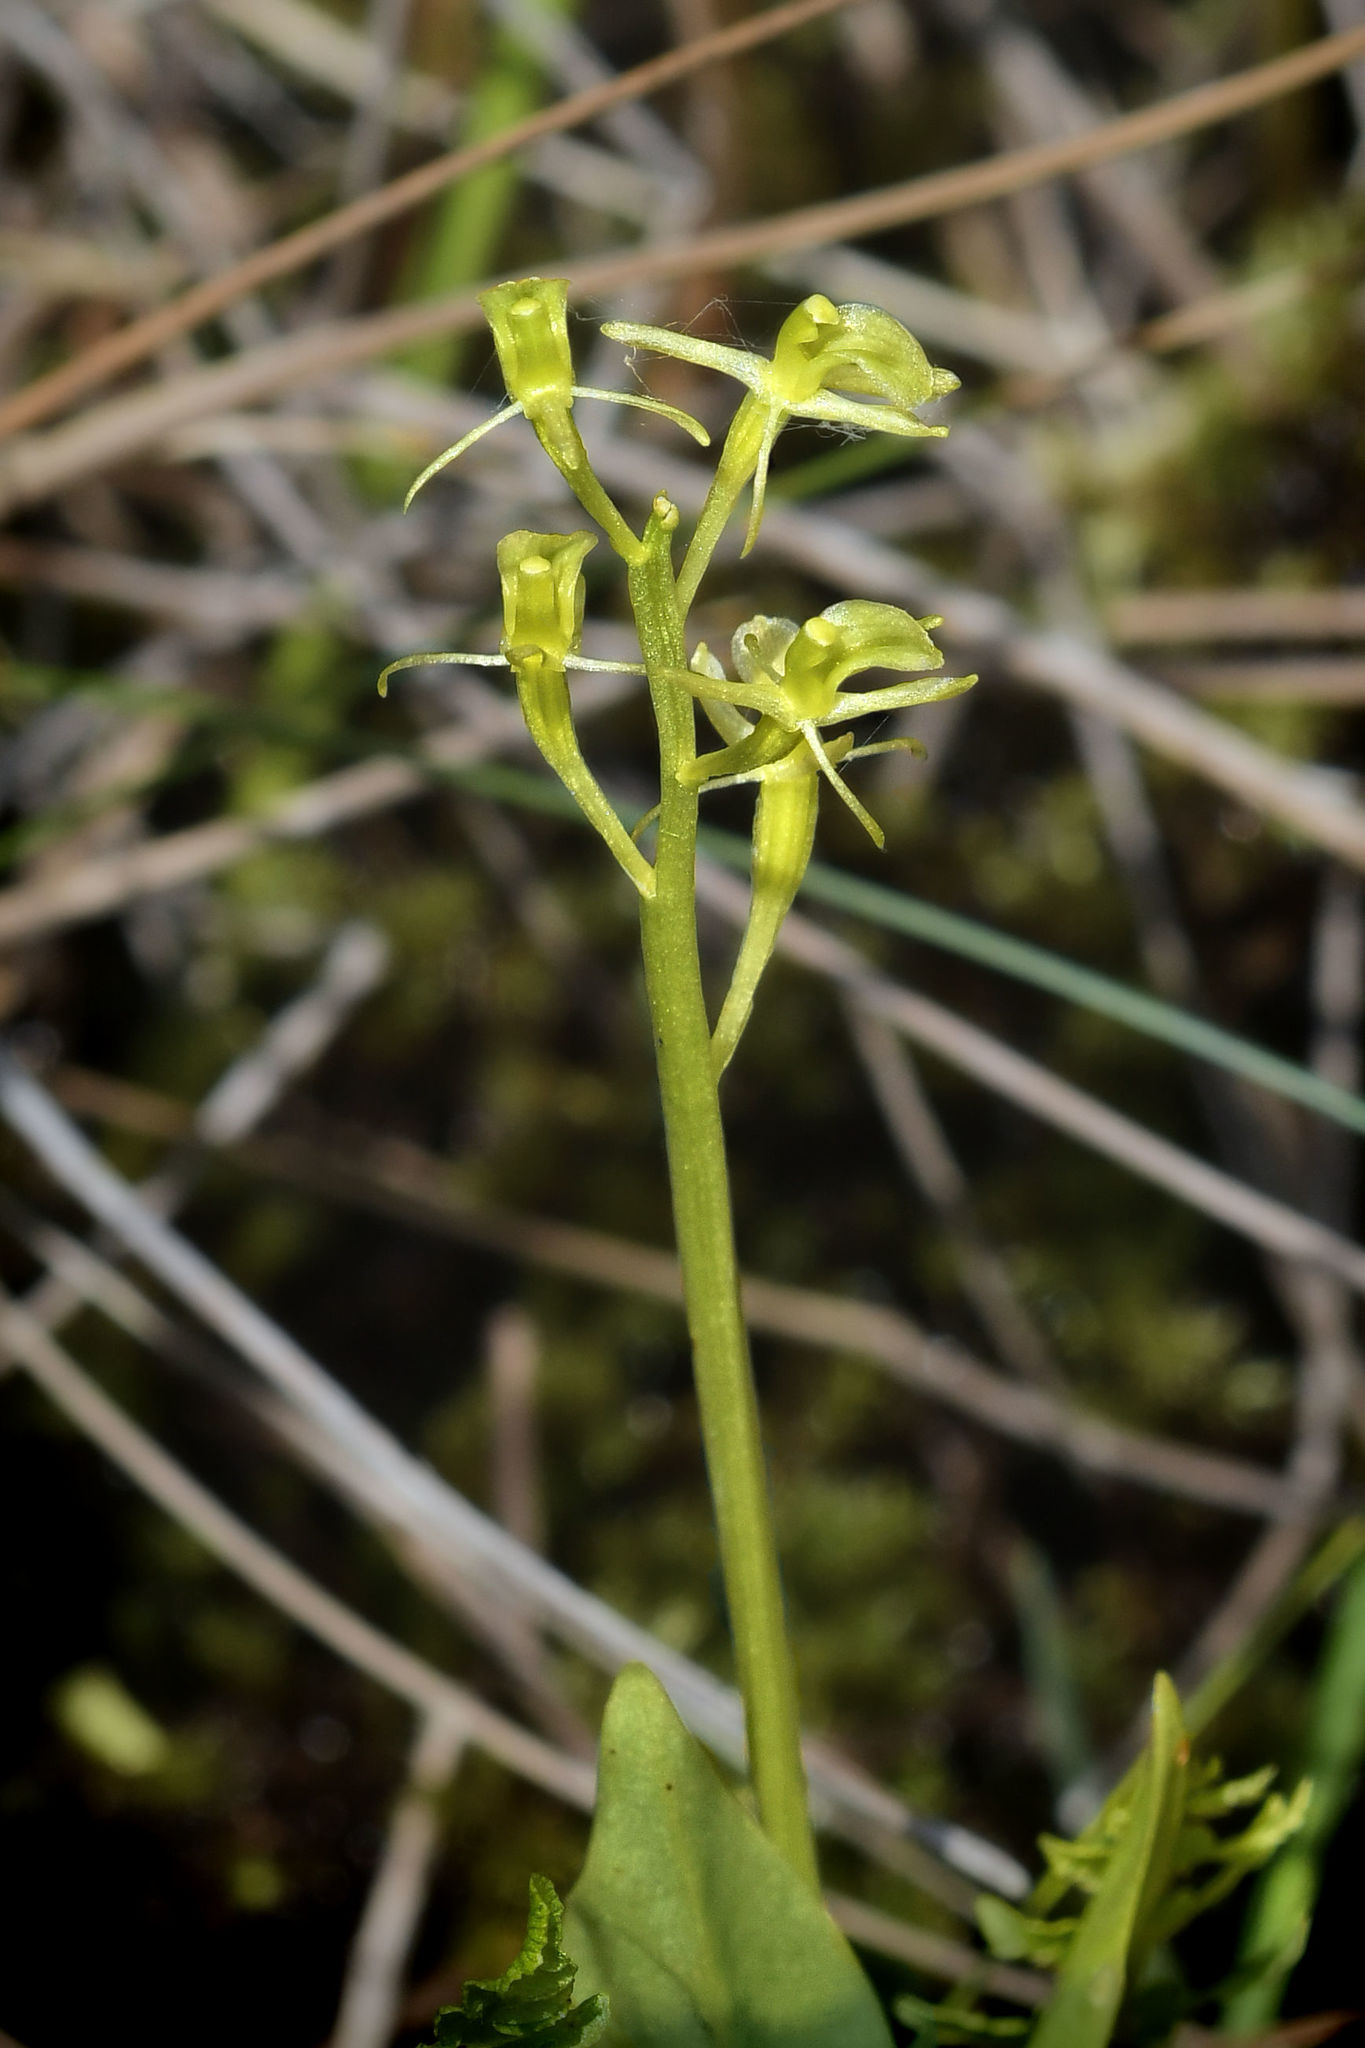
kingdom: Animalia
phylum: Arthropoda
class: Insecta
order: Coleoptera
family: Curculionidae
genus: Liparis
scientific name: Liparis loeselii
